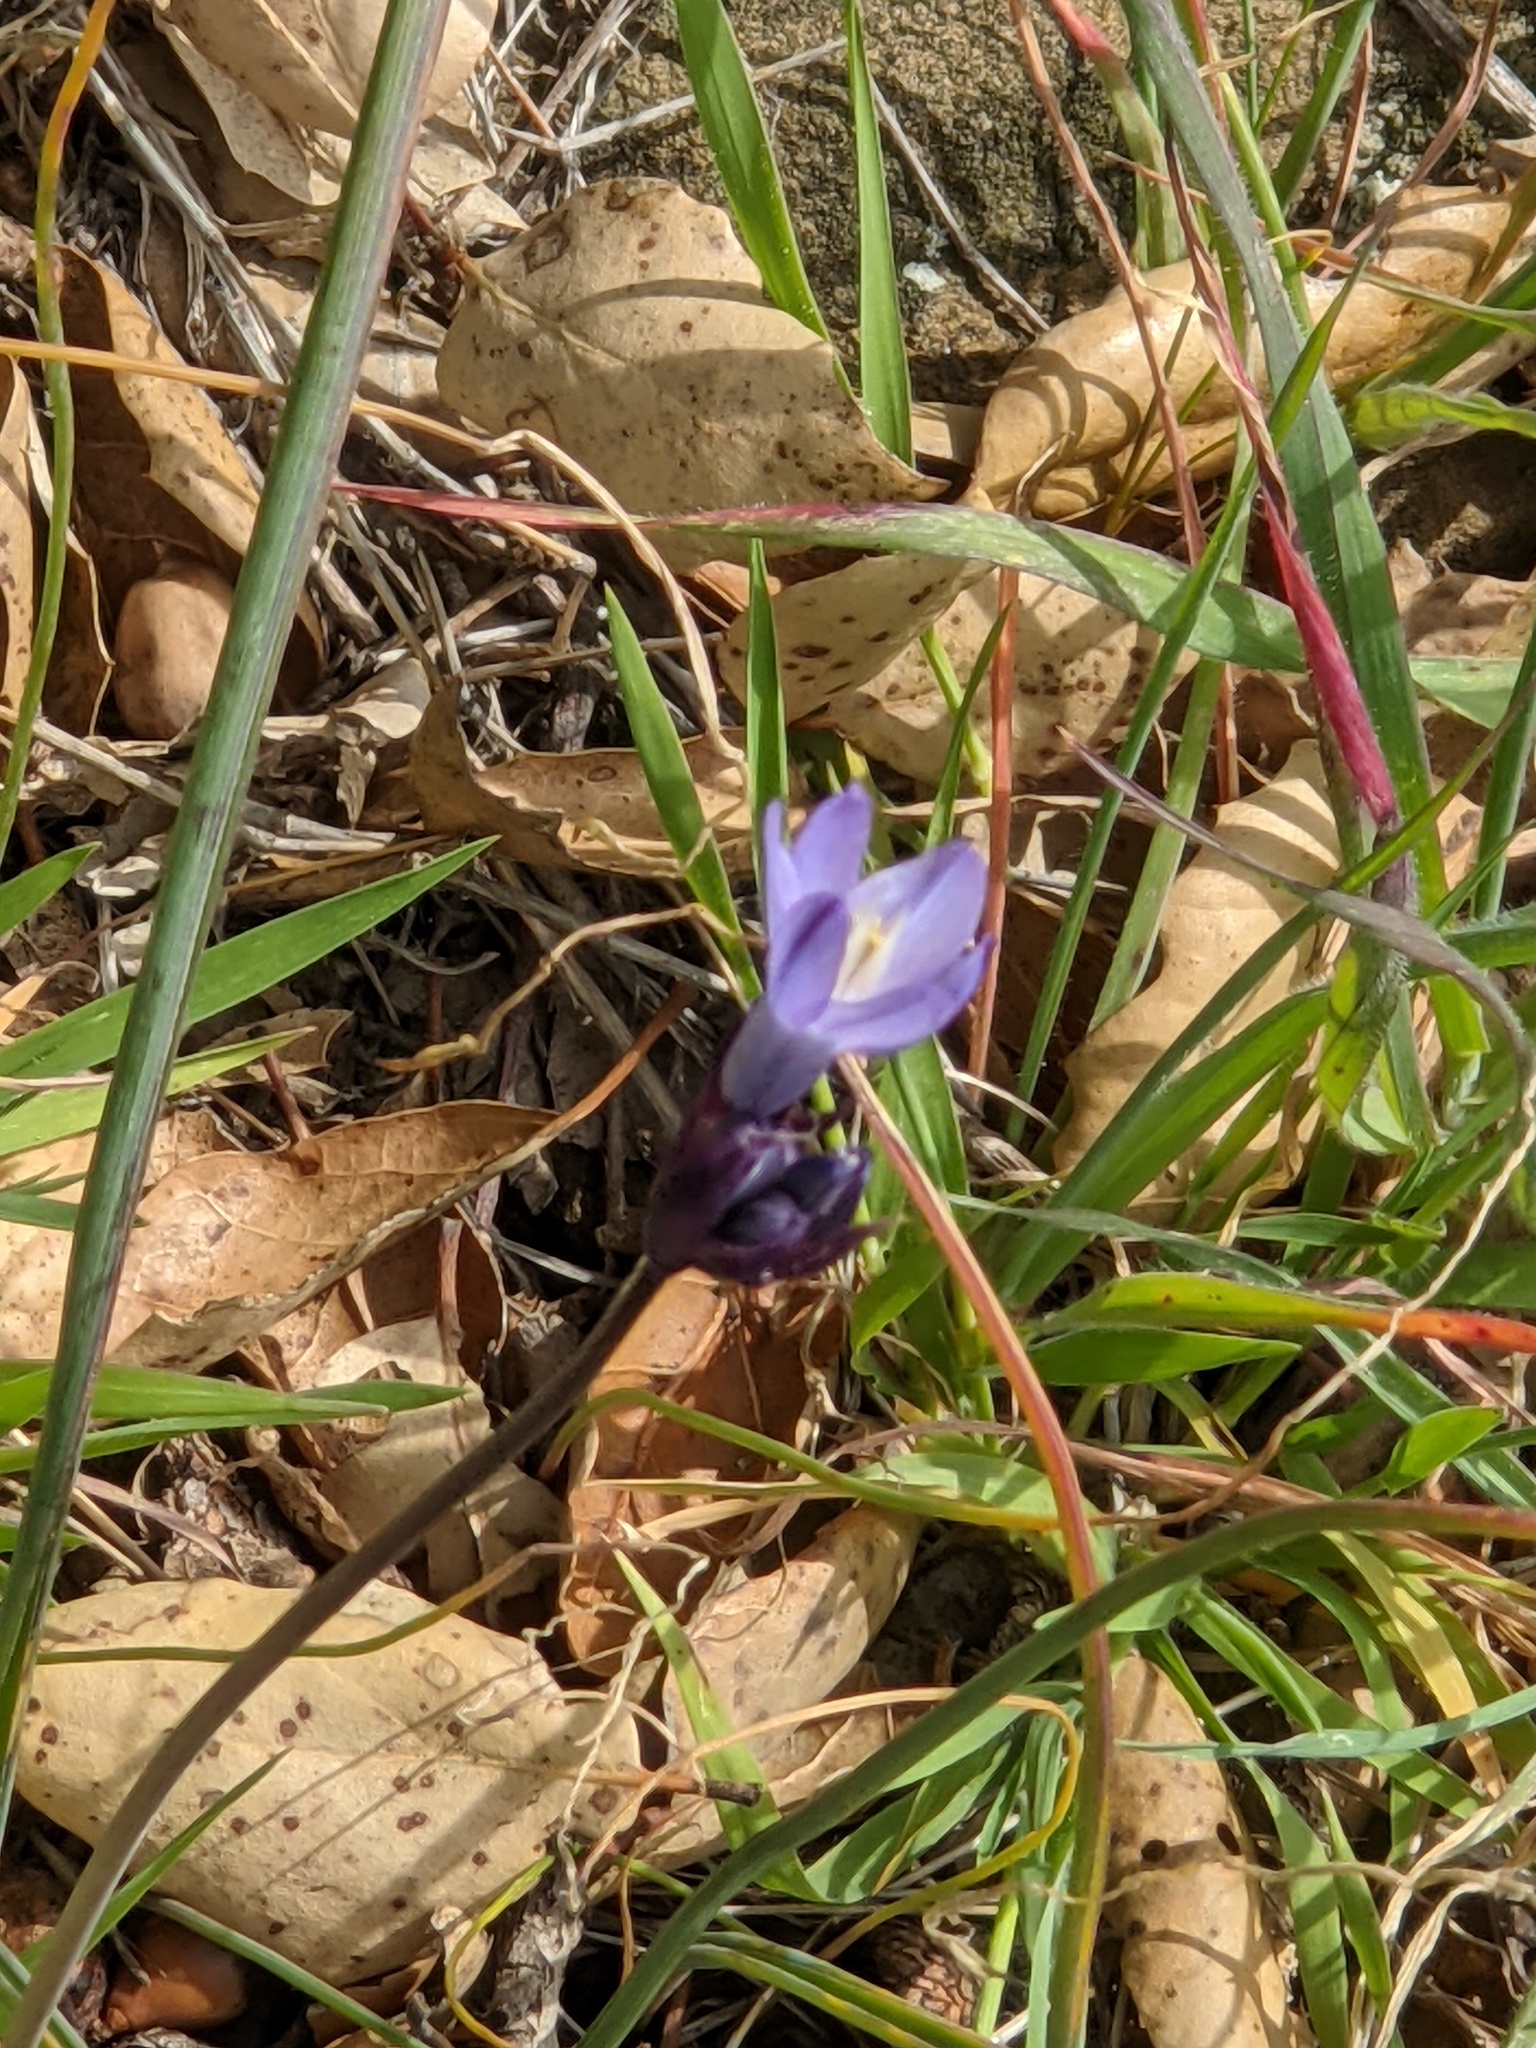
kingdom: Plantae
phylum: Tracheophyta
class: Liliopsida
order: Asparagales
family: Asparagaceae
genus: Dipterostemon
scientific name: Dipterostemon capitatus
